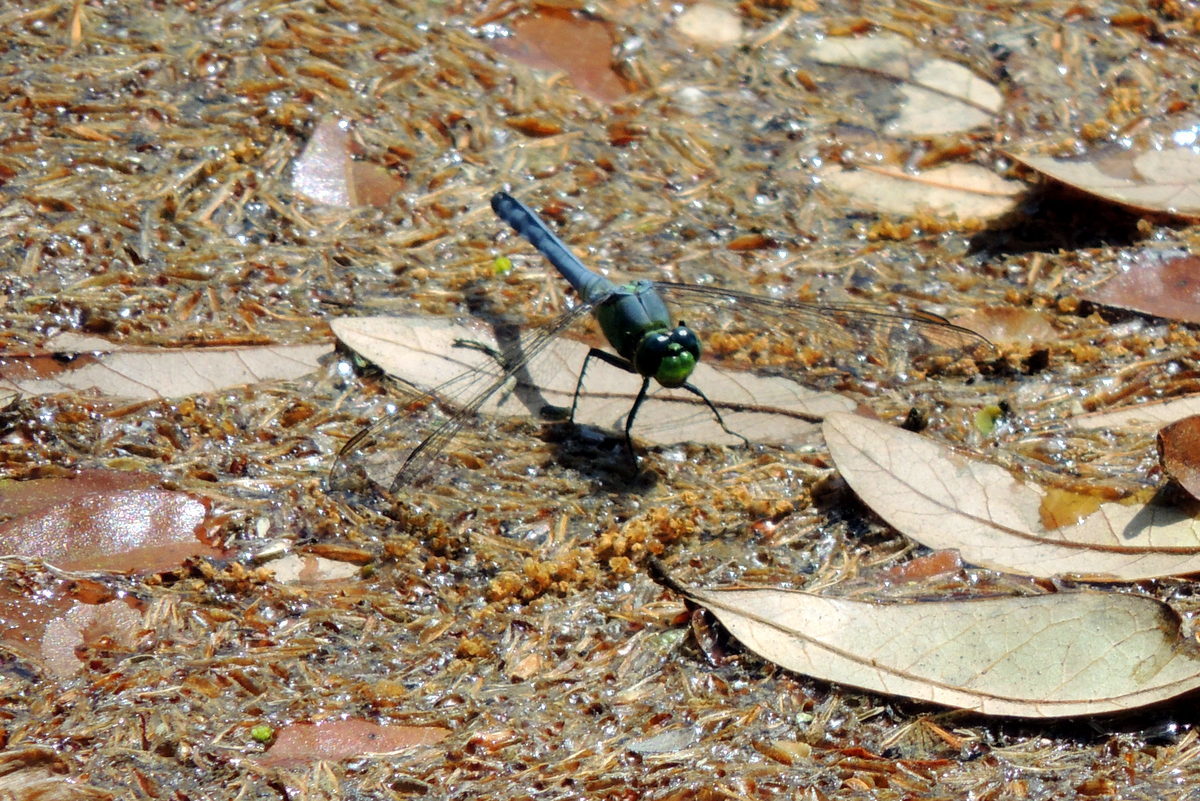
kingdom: Animalia
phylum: Arthropoda
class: Insecta
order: Odonata
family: Libellulidae
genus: Erythemis
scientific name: Erythemis simplicicollis
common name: Eastern pondhawk
